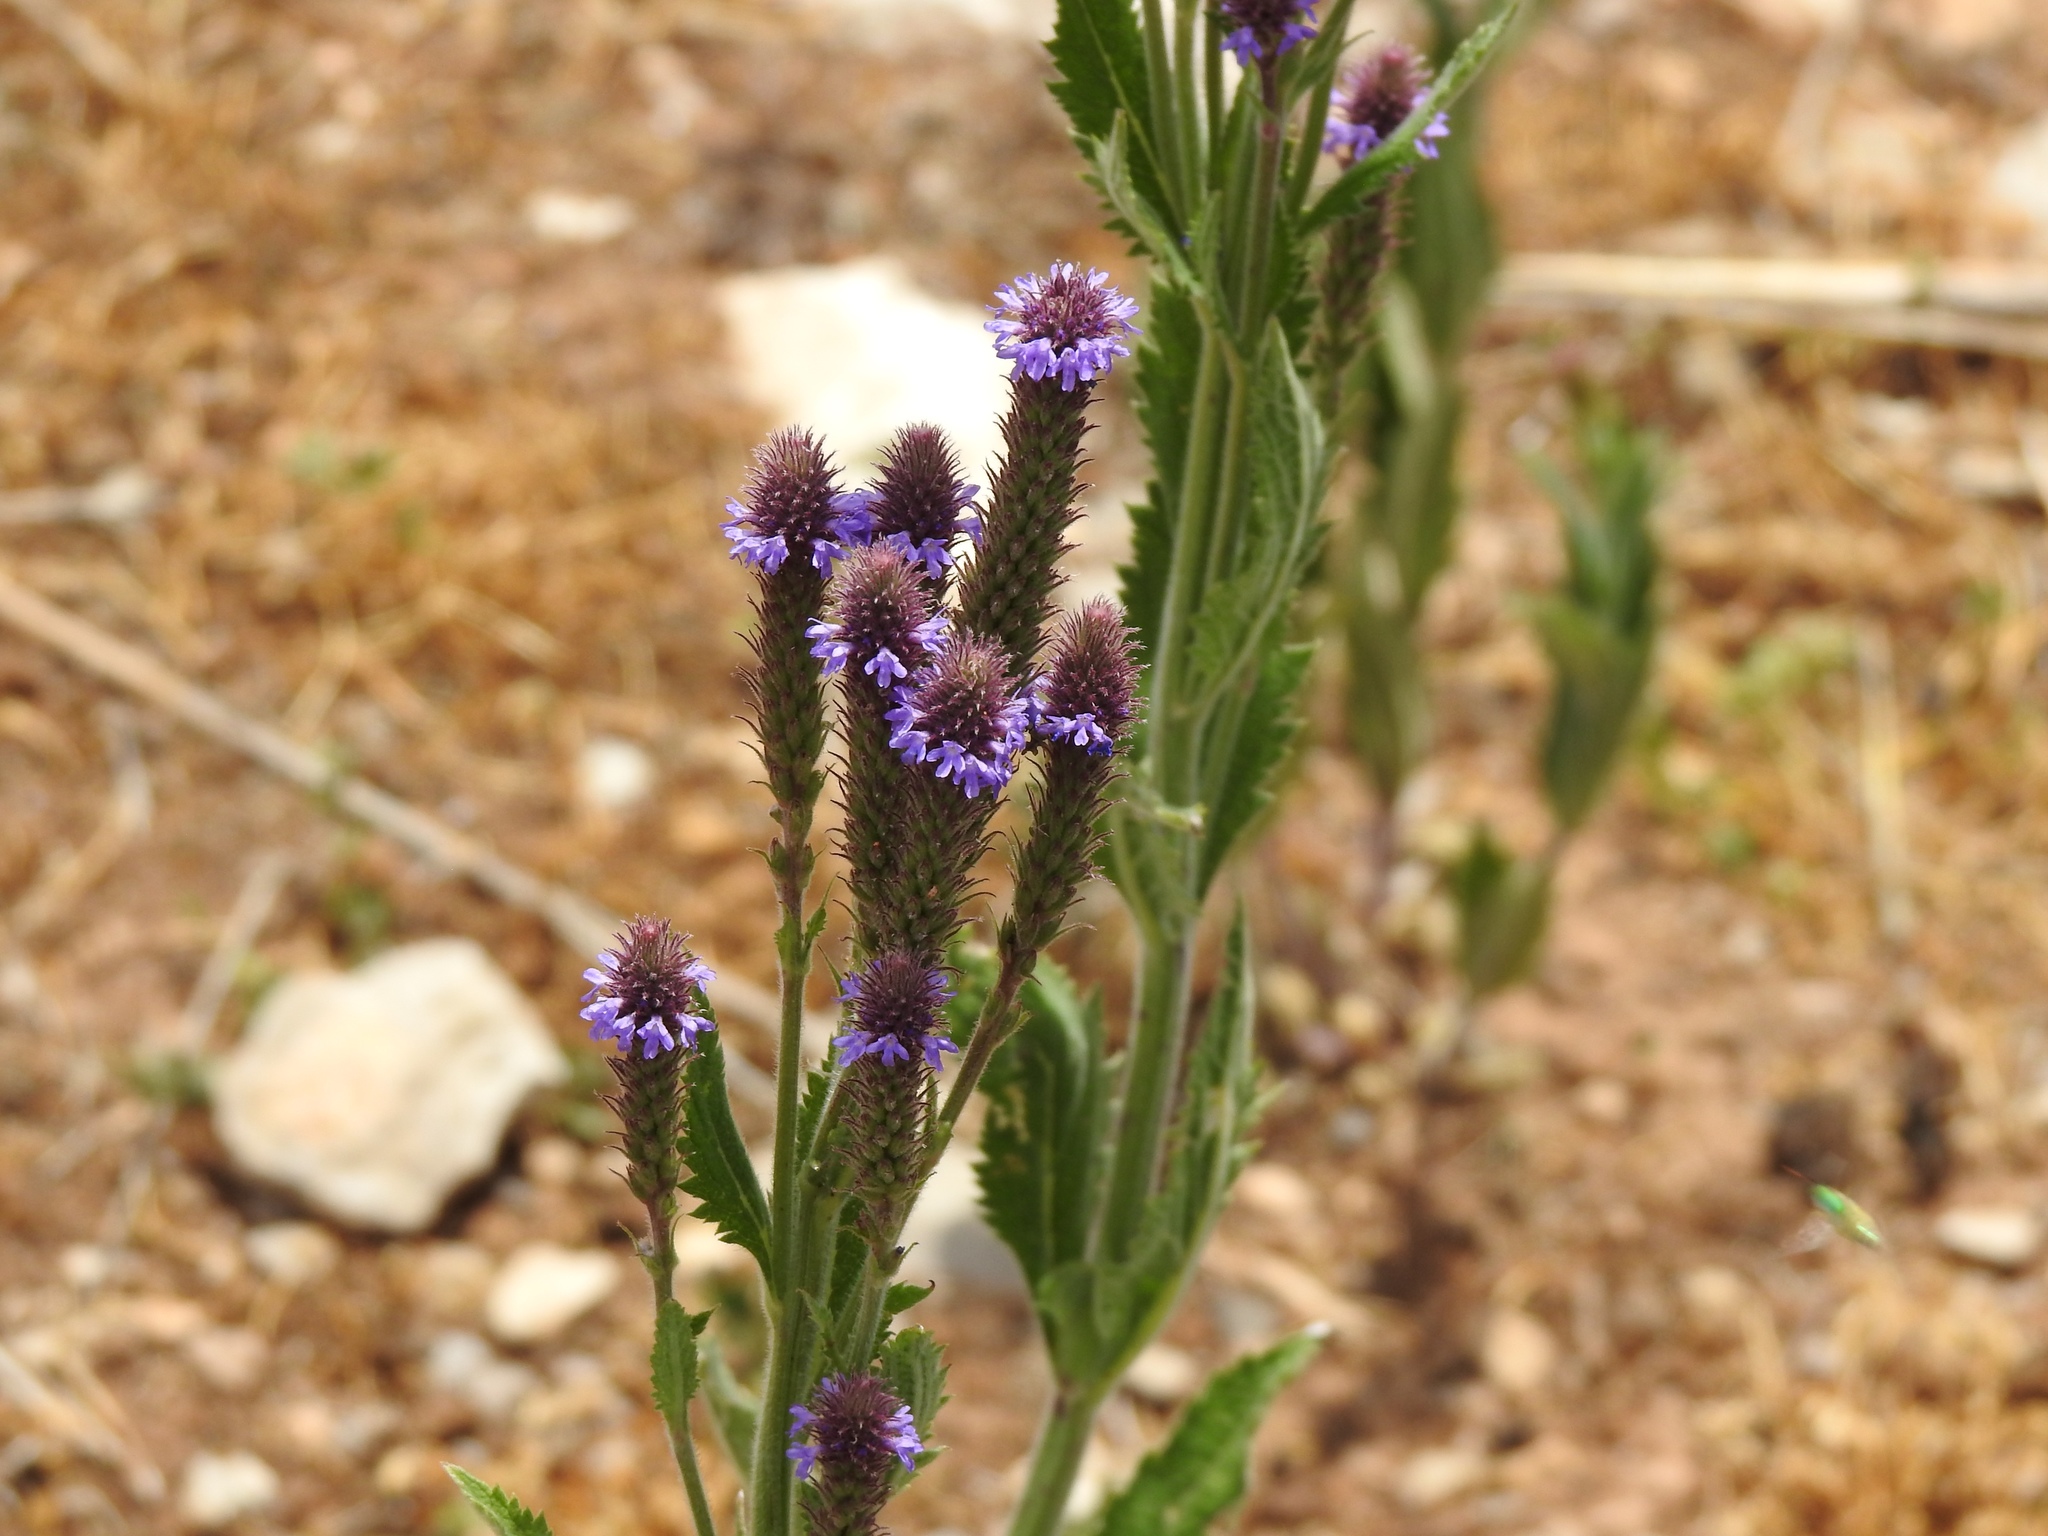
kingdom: Plantae
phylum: Tracheophyta
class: Magnoliopsida
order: Lamiales
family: Verbenaceae
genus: Verbena
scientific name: Verbena macdougalii
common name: New mexico vervain
